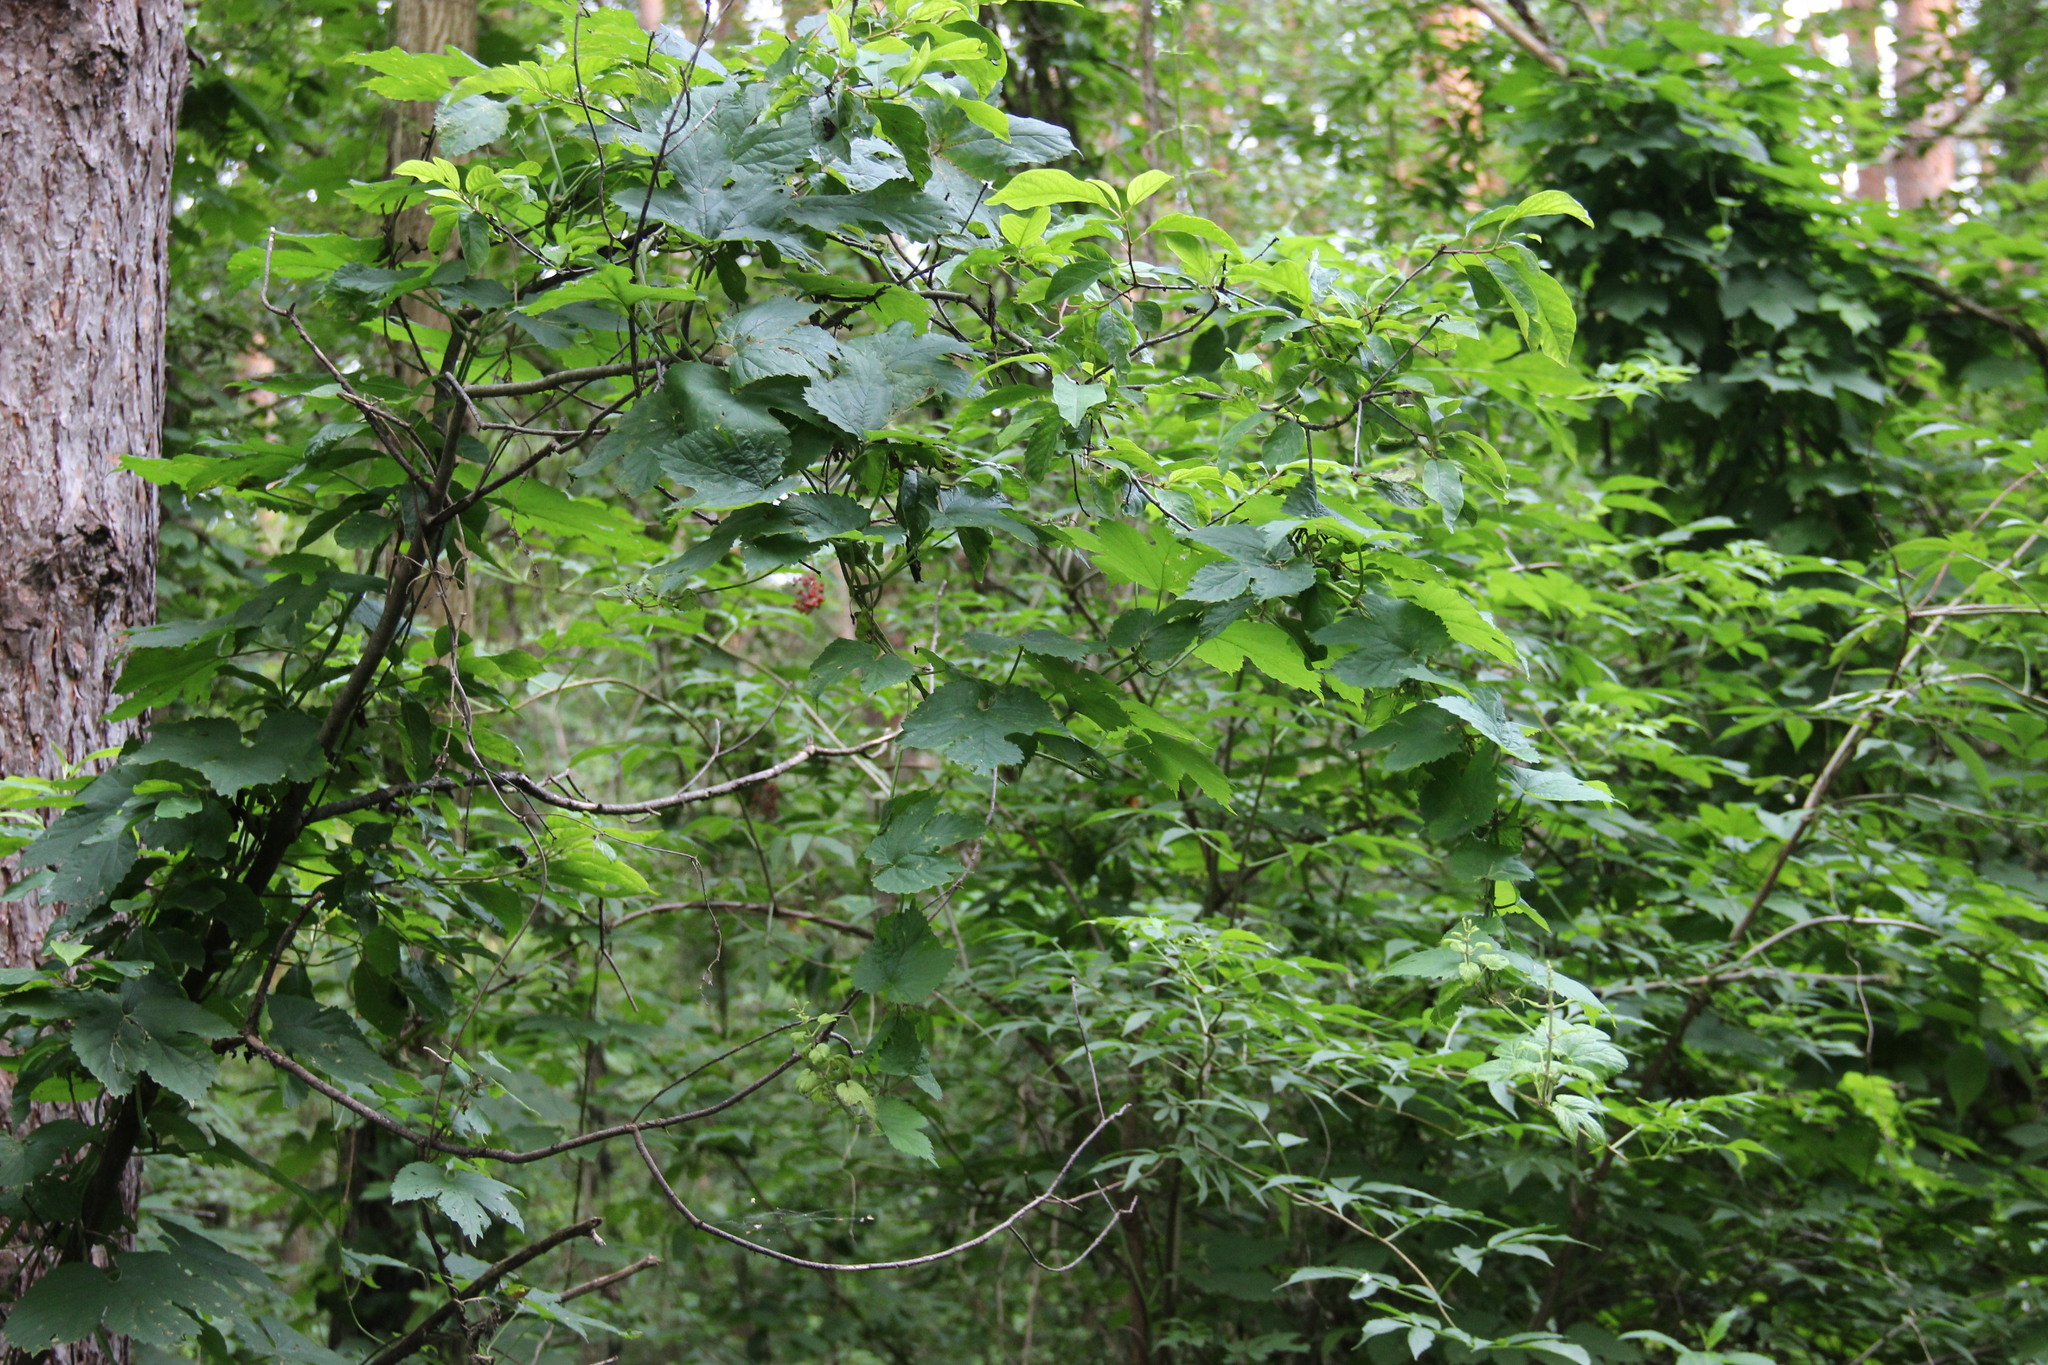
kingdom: Plantae
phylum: Tracheophyta
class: Magnoliopsida
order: Rosales
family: Cannabaceae
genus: Humulus
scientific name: Humulus lupulus
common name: Hop
